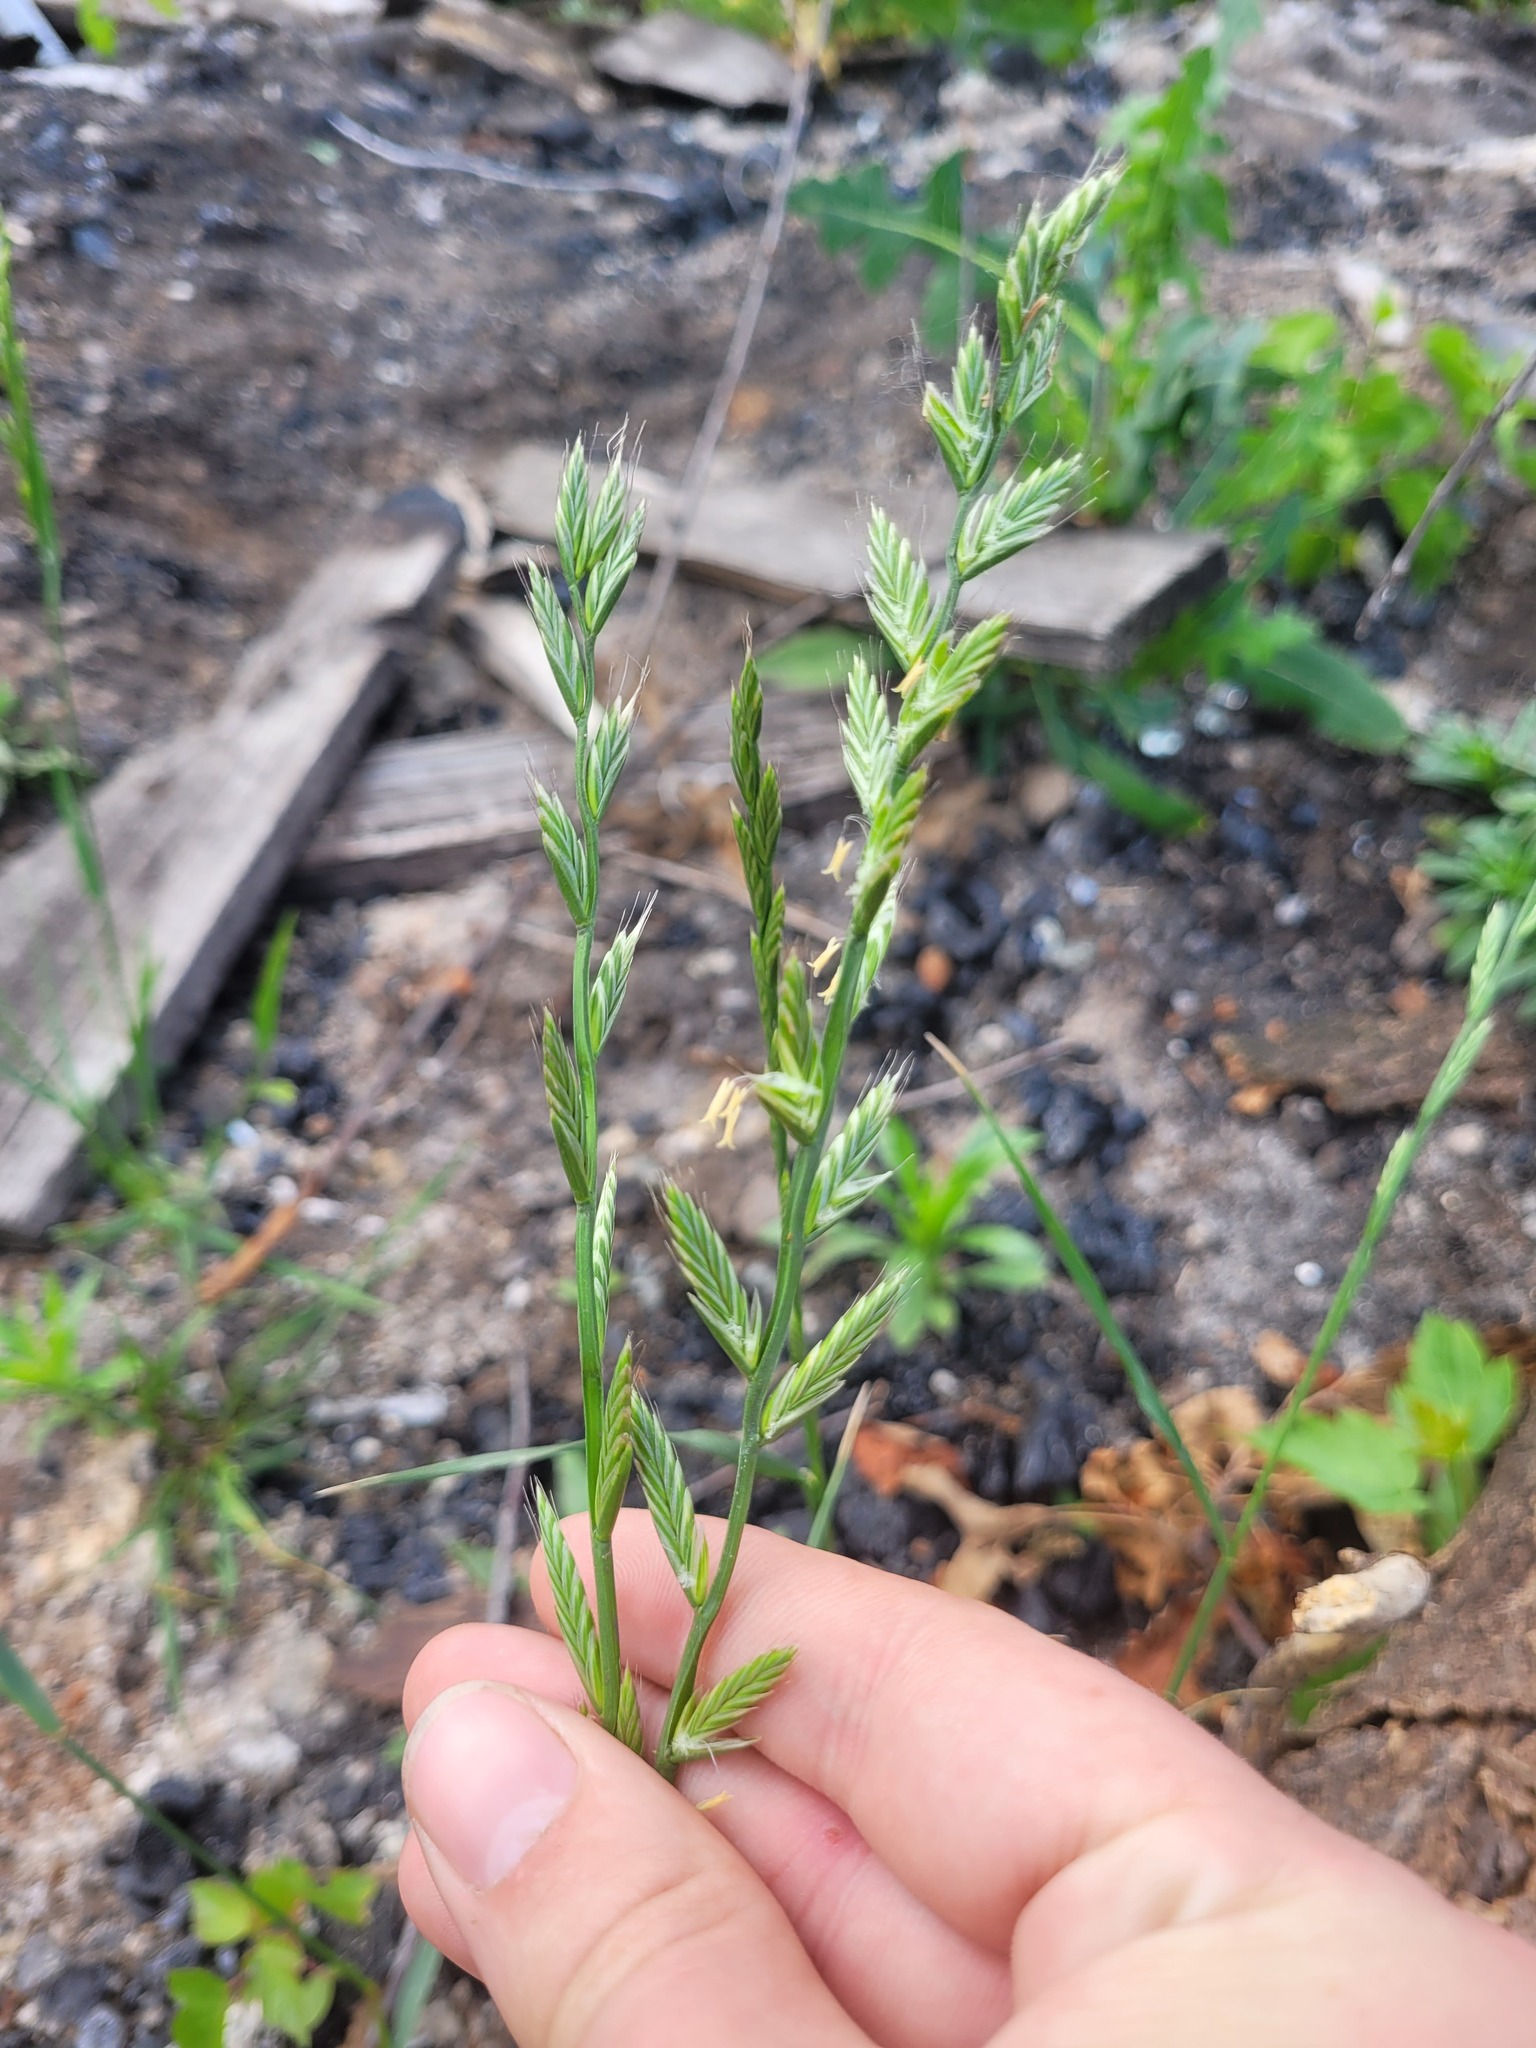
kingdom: Plantae
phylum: Tracheophyta
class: Liliopsida
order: Poales
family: Poaceae
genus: Lolium
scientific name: Lolium multiflorum
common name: Annual ryegrass
